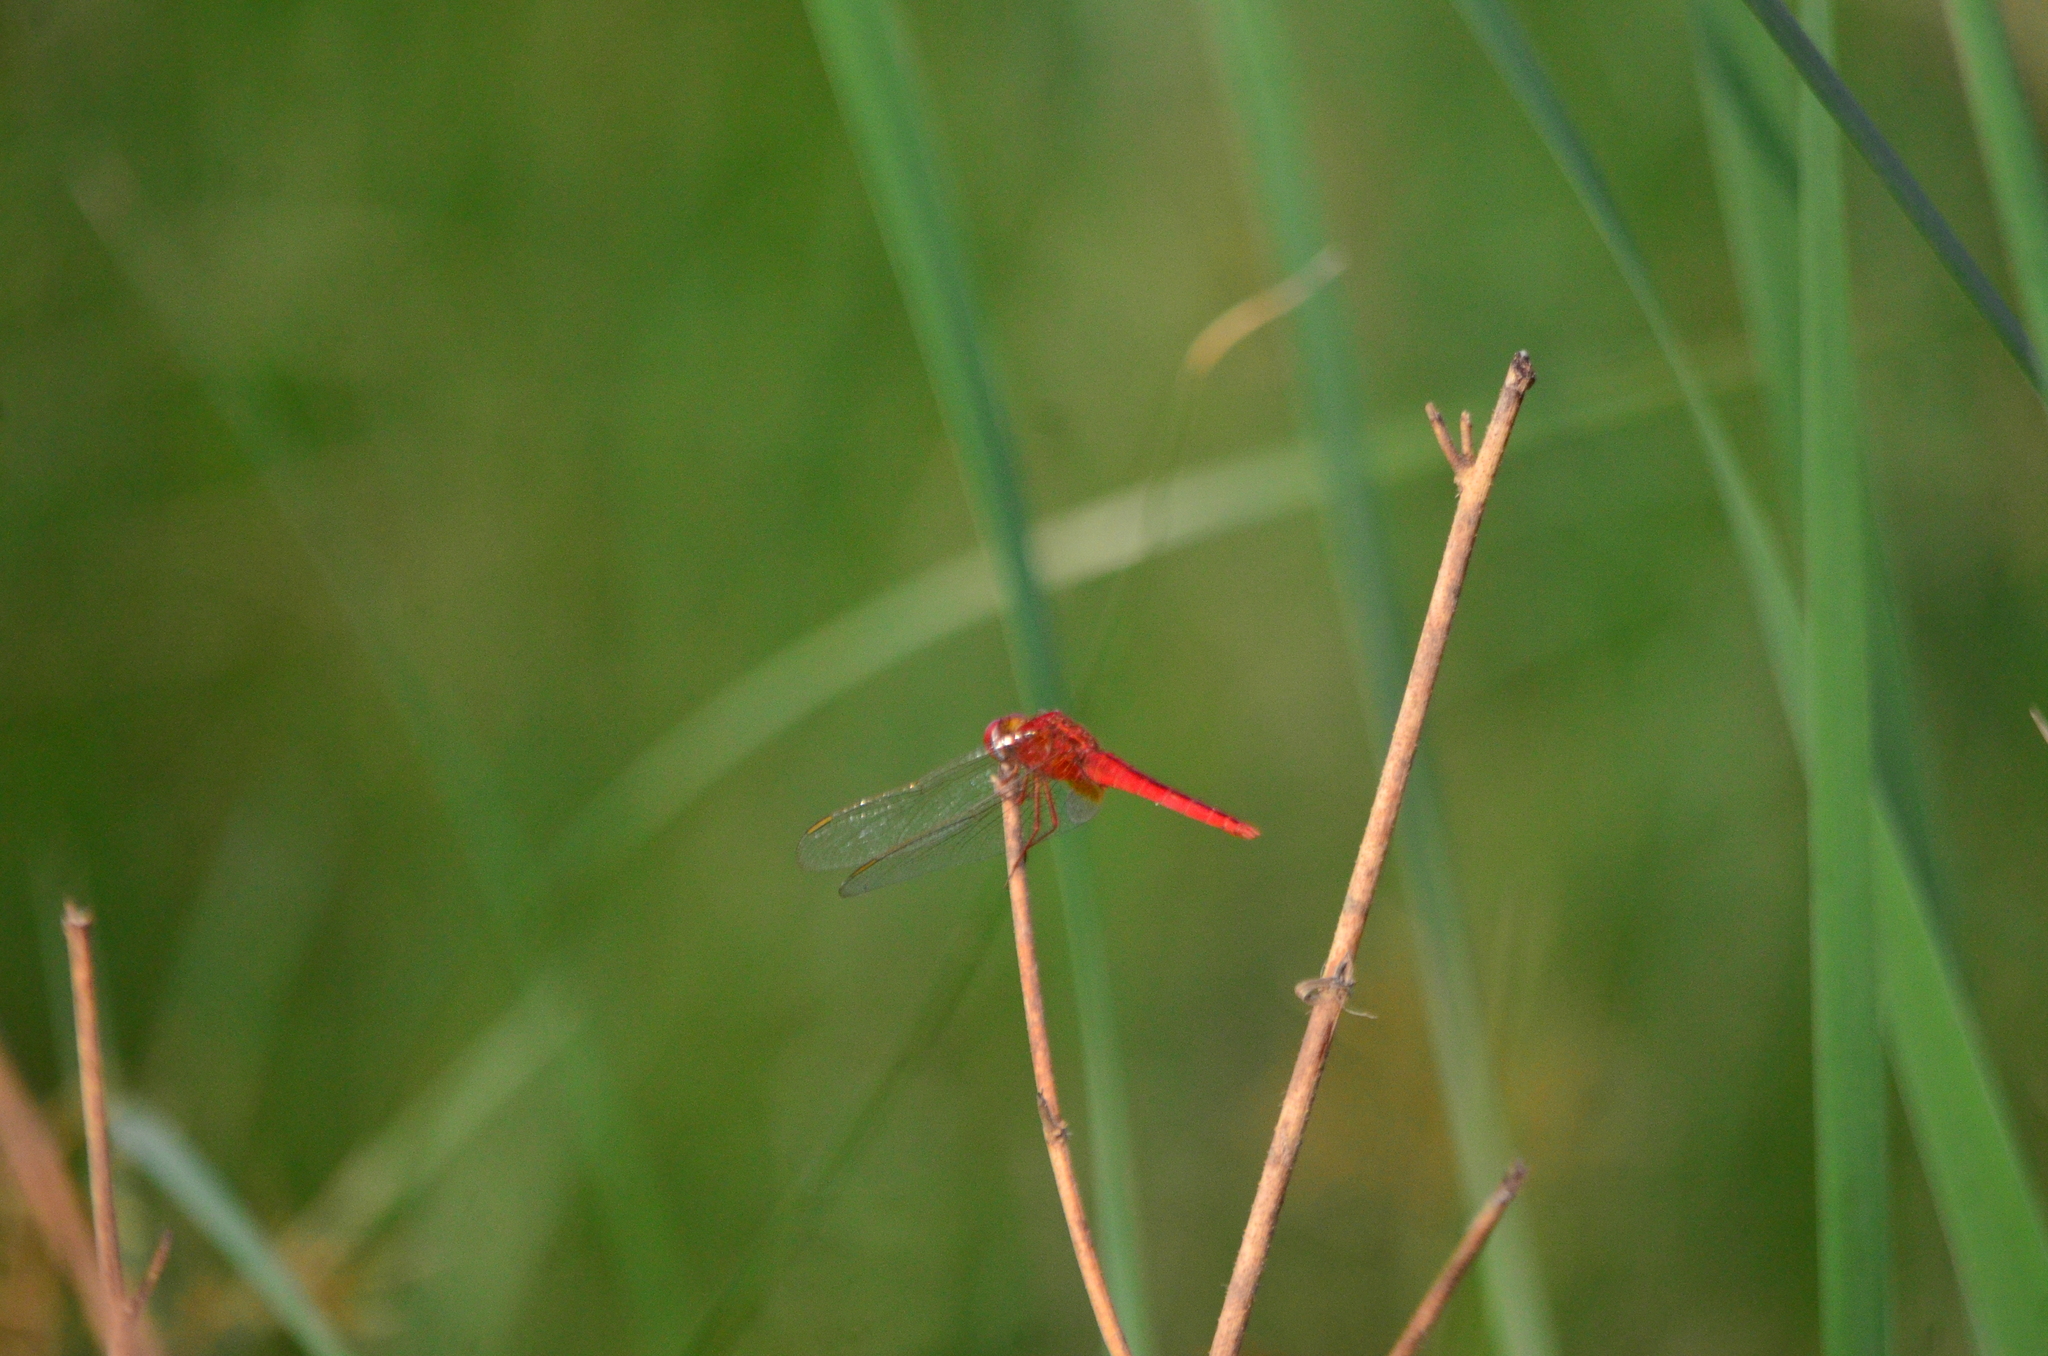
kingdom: Animalia
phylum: Arthropoda
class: Insecta
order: Odonata
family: Libellulidae
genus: Crocothemis
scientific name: Crocothemis servilia
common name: Scarlet skimmer
